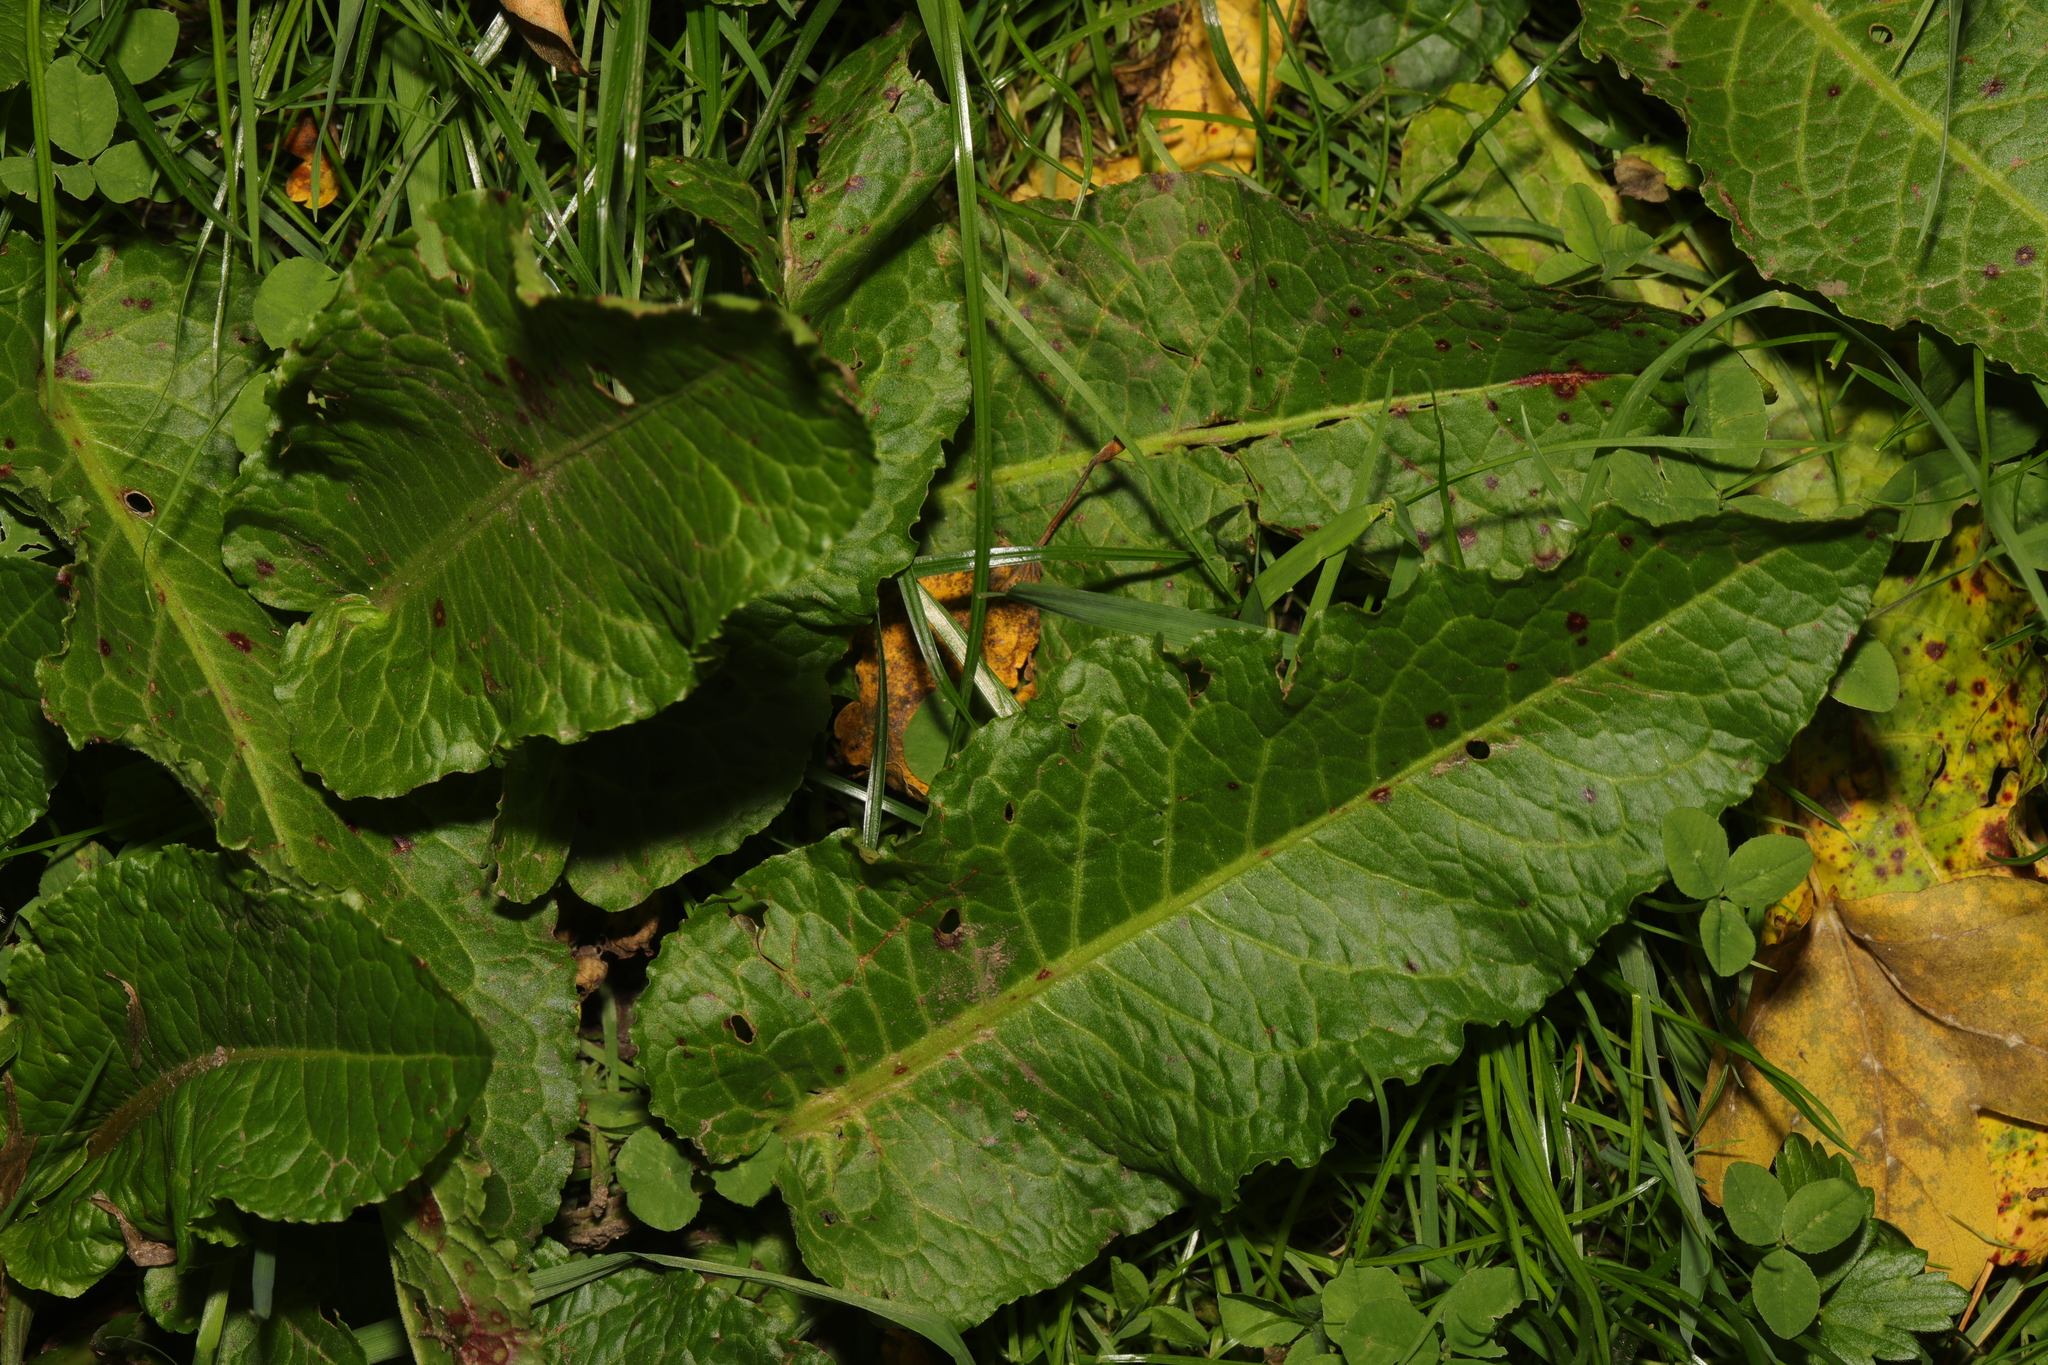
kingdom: Plantae
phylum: Tracheophyta
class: Magnoliopsida
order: Caryophyllales
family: Polygonaceae
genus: Rumex
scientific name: Rumex obtusifolius
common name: Bitter dock
